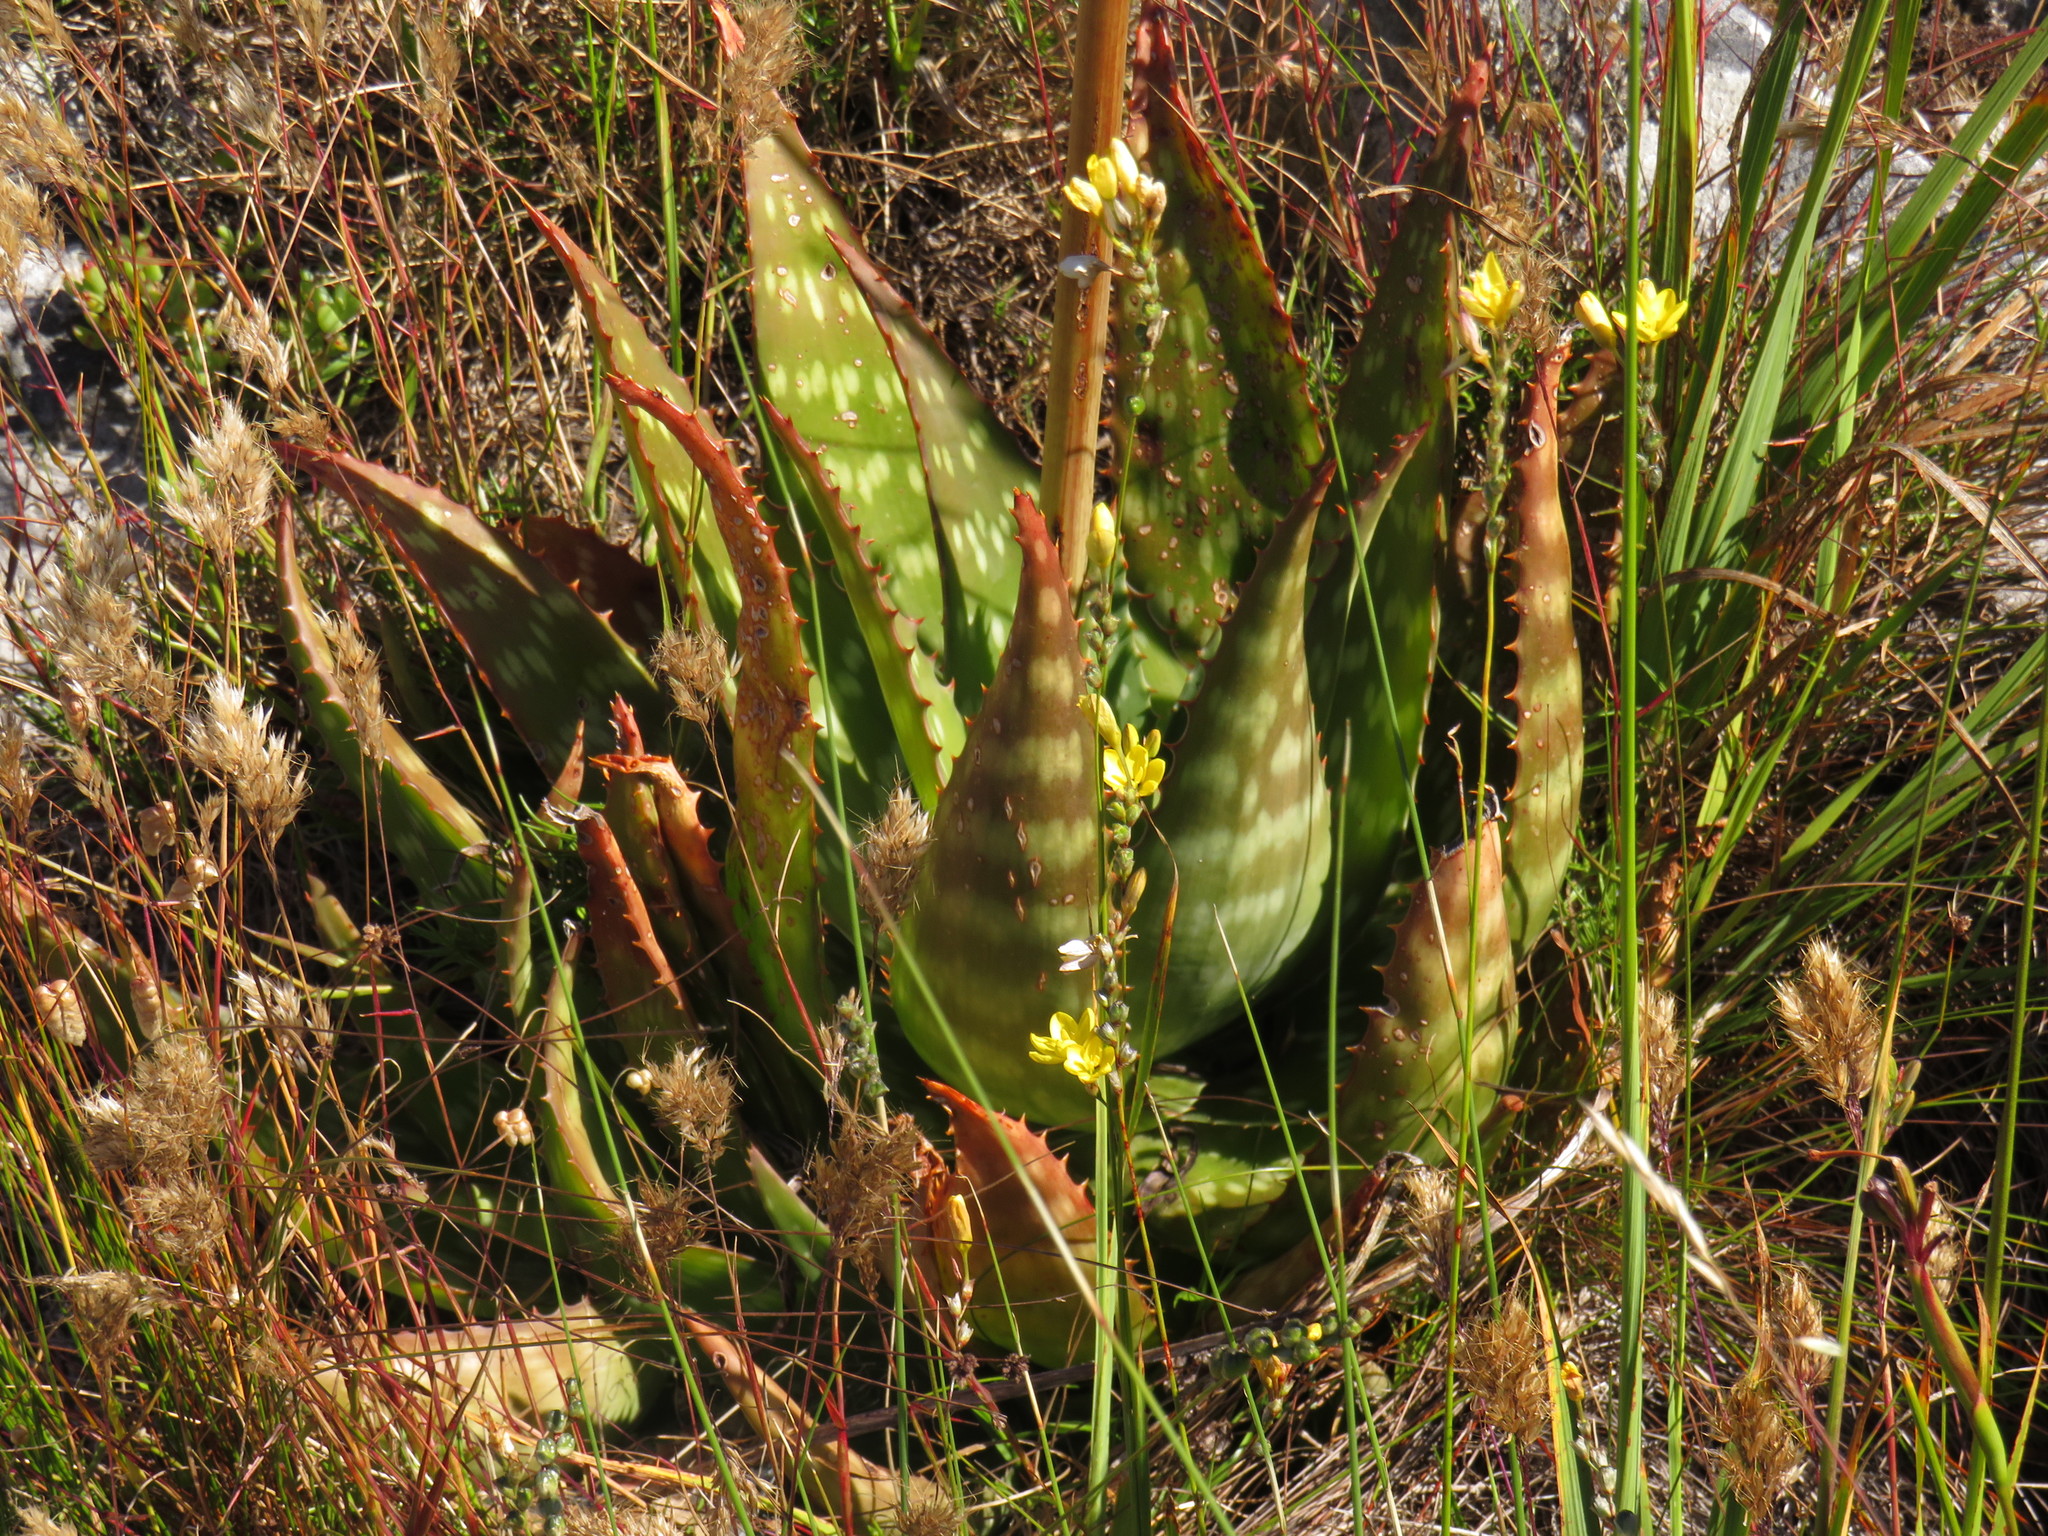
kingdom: Plantae
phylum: Tracheophyta
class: Liliopsida
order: Asparagales
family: Asphodelaceae
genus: Aloe
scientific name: Aloe maculata
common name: Broadleaf aloe
